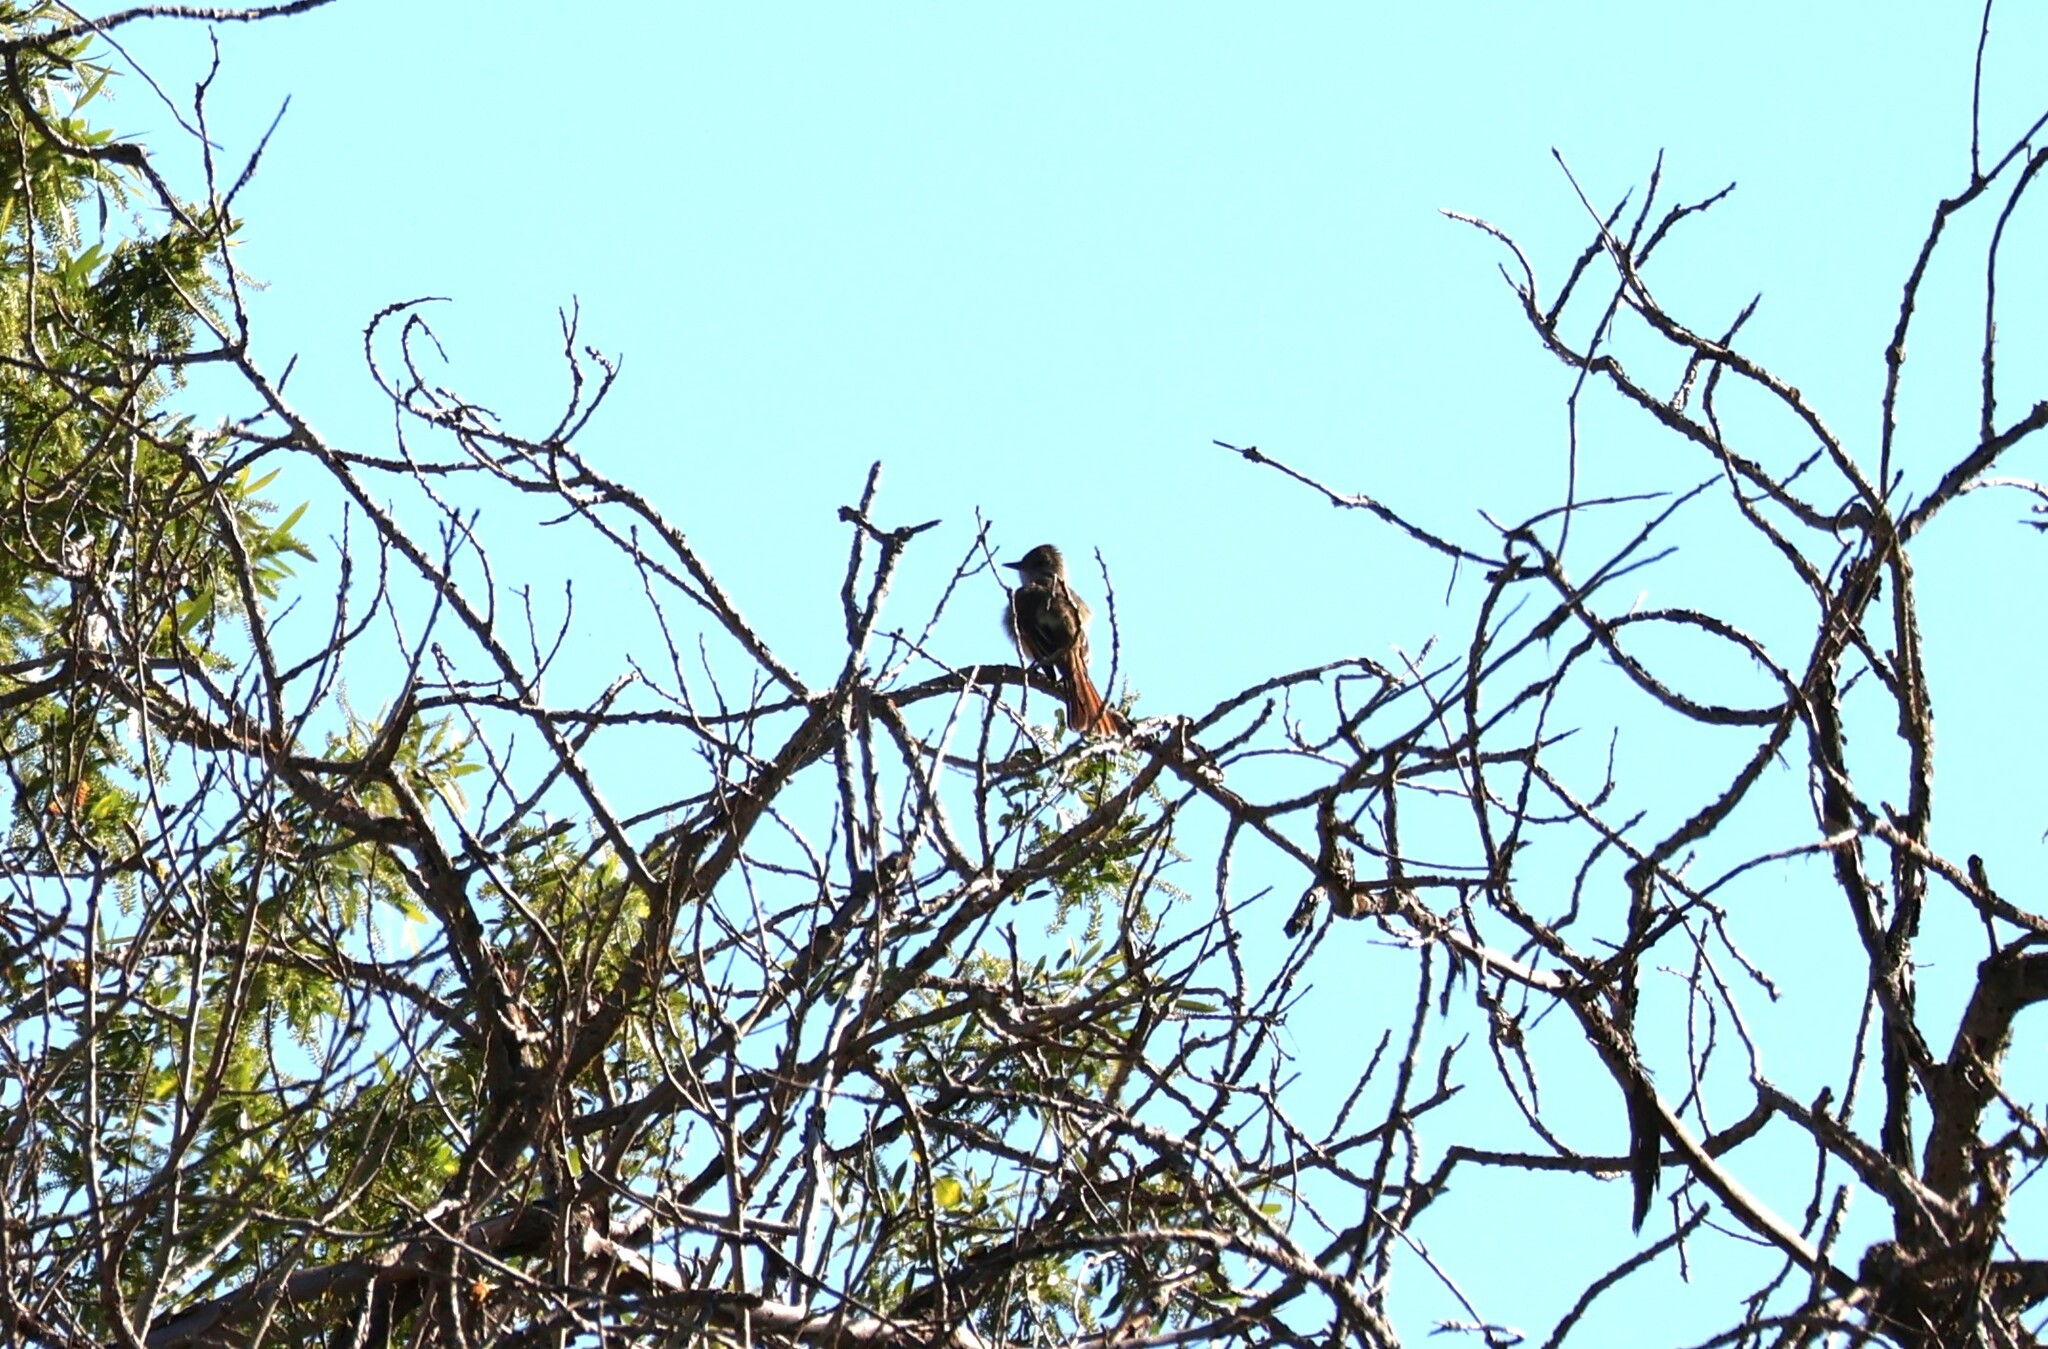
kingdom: Animalia
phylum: Chordata
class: Aves
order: Passeriformes
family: Tyrannidae
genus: Myiarchus
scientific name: Myiarchus cinerascens
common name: Ash-throated flycatcher
